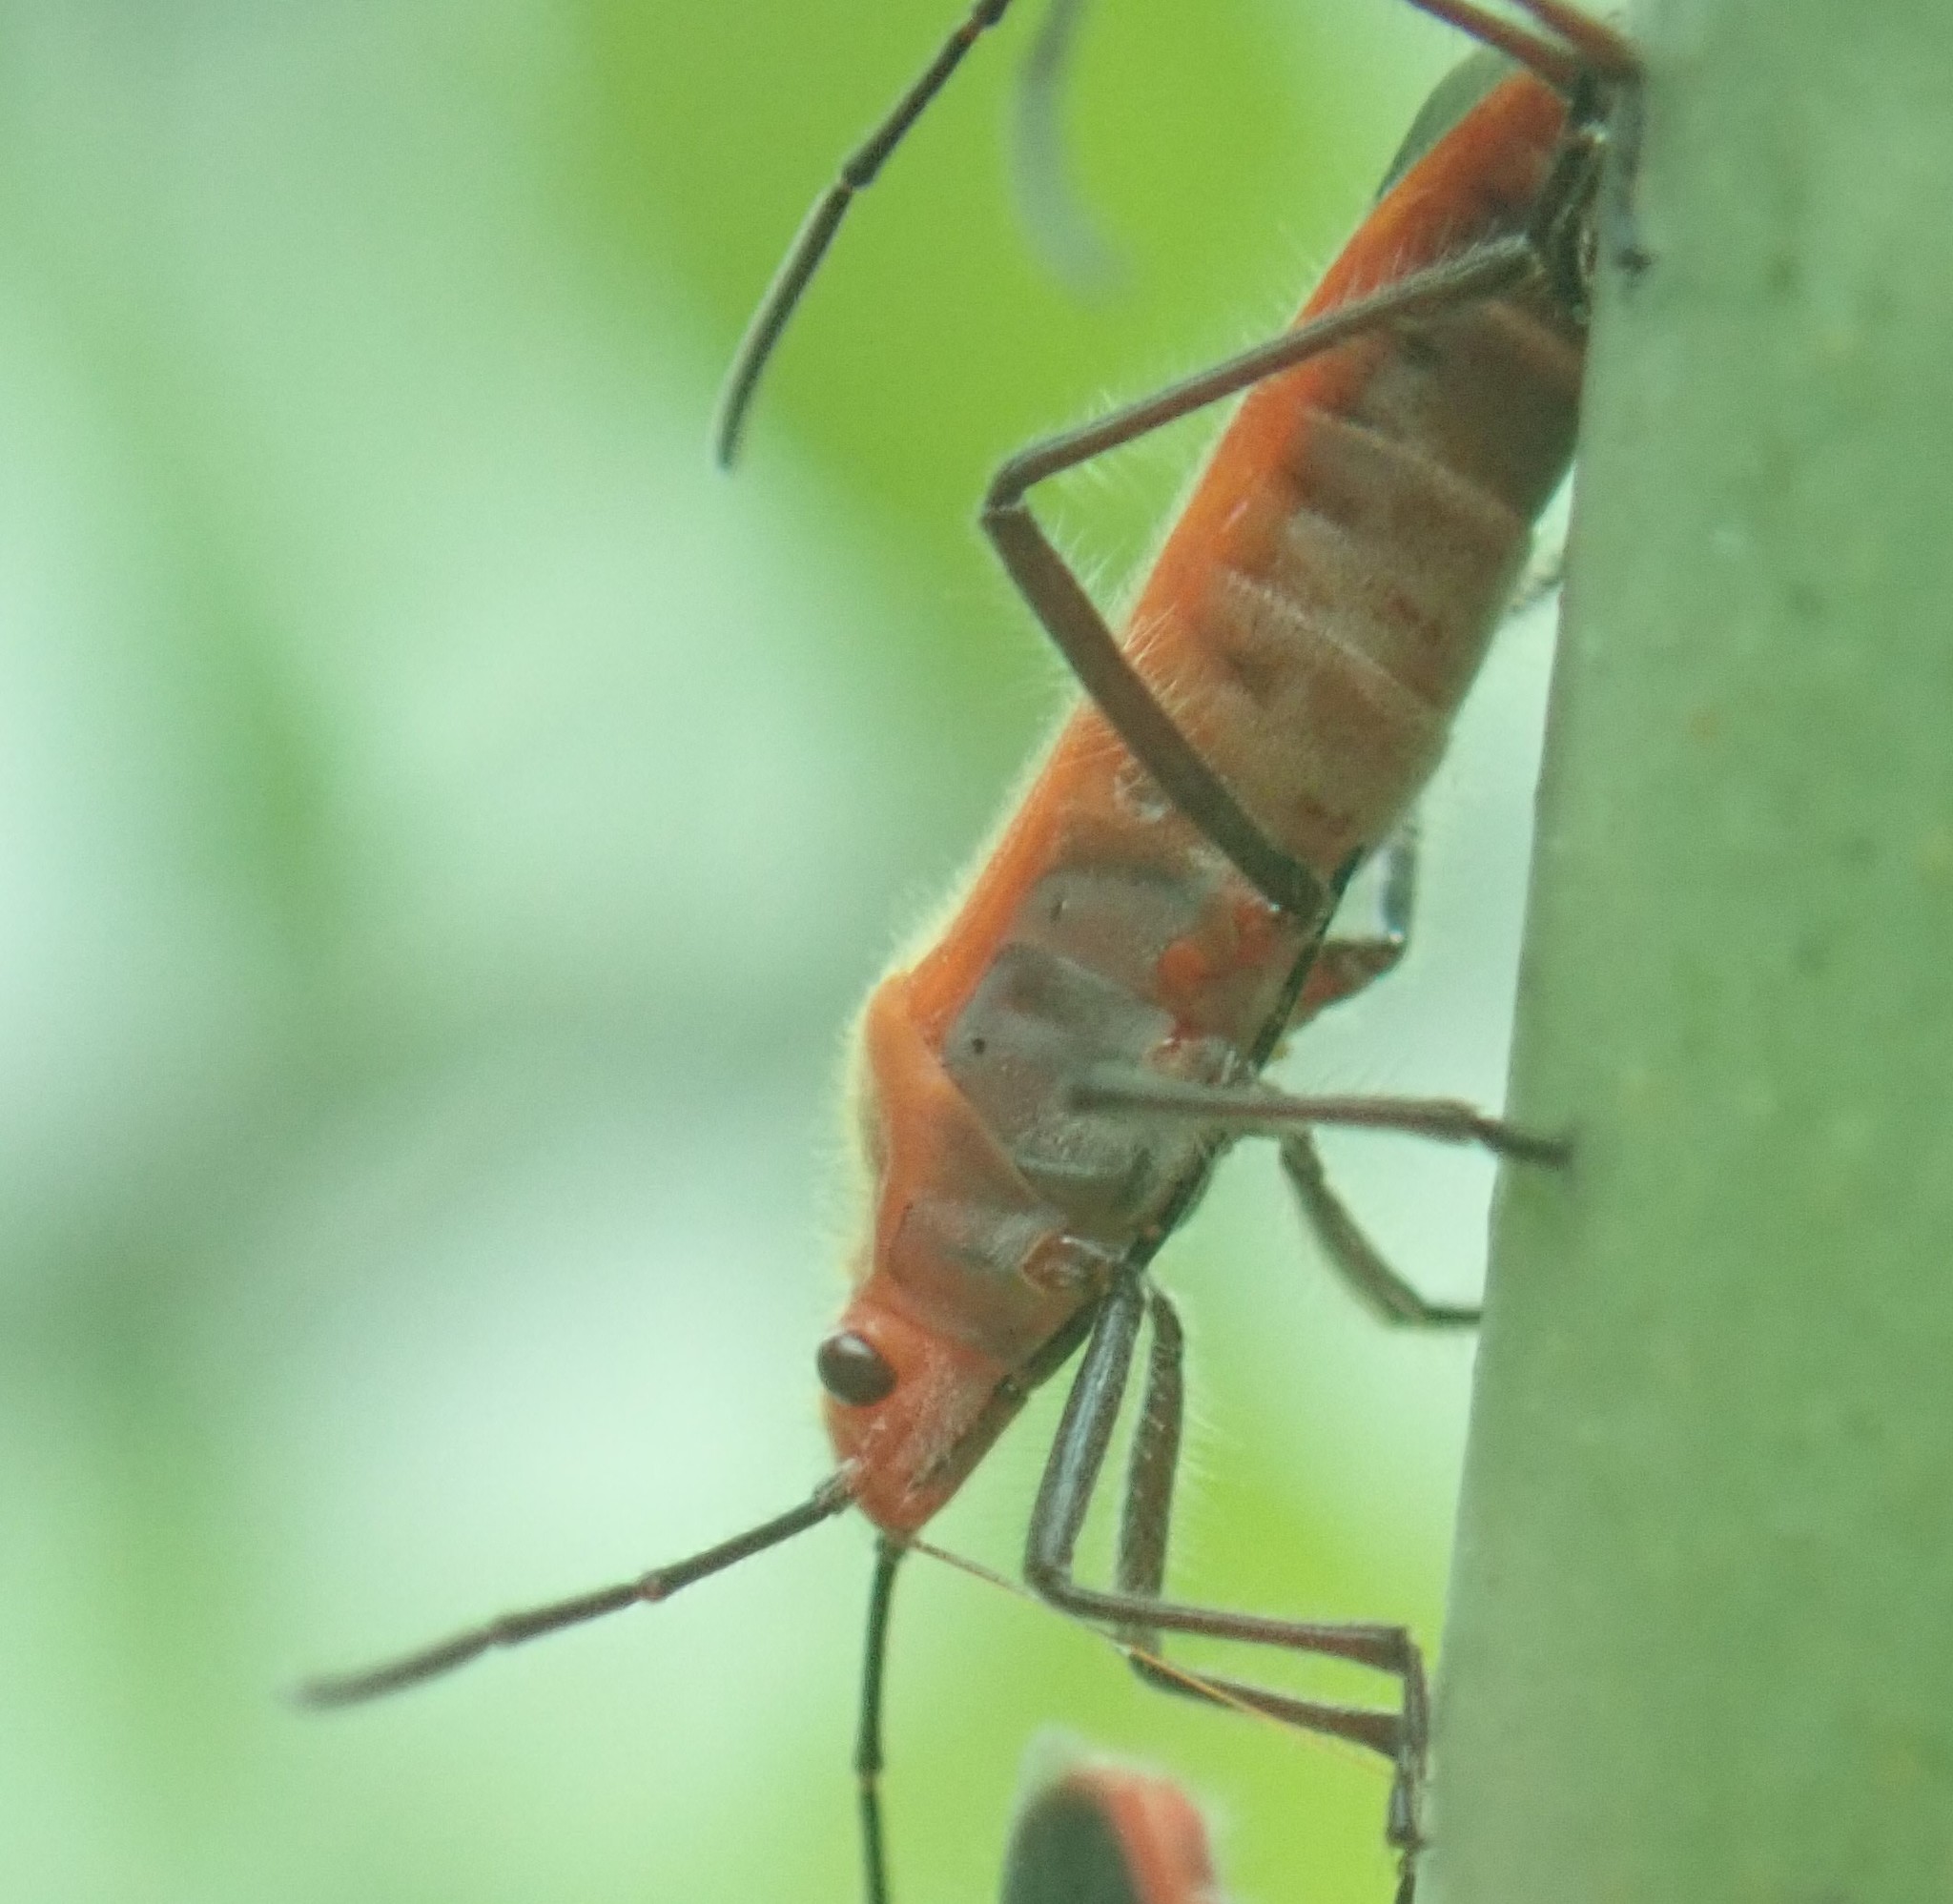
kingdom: Animalia
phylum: Arthropoda
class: Insecta
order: Hemiptera
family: Lygaeidae
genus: Arocatus
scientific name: Arocatus nanus
